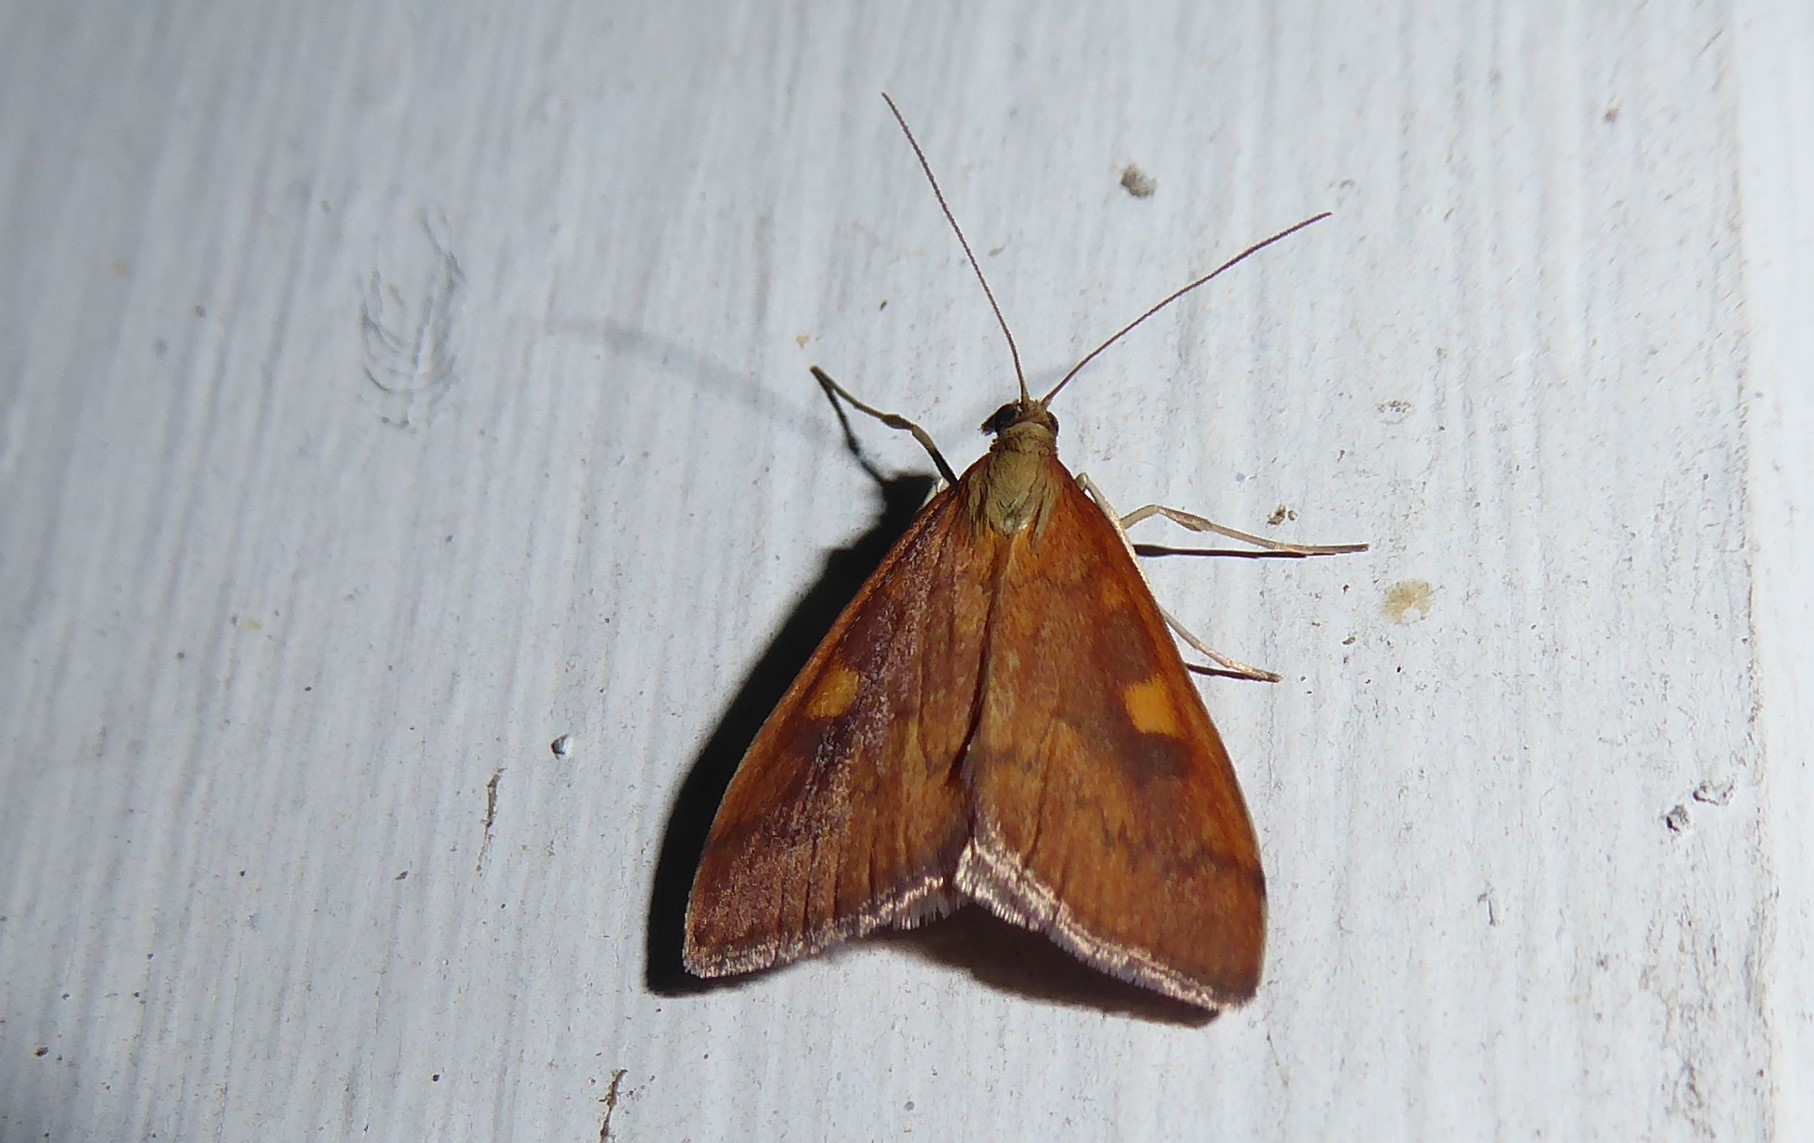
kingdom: Animalia
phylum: Arthropoda
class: Insecta
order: Lepidoptera
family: Crambidae
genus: Udea
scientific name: Udea Mnesictena flavidalis
